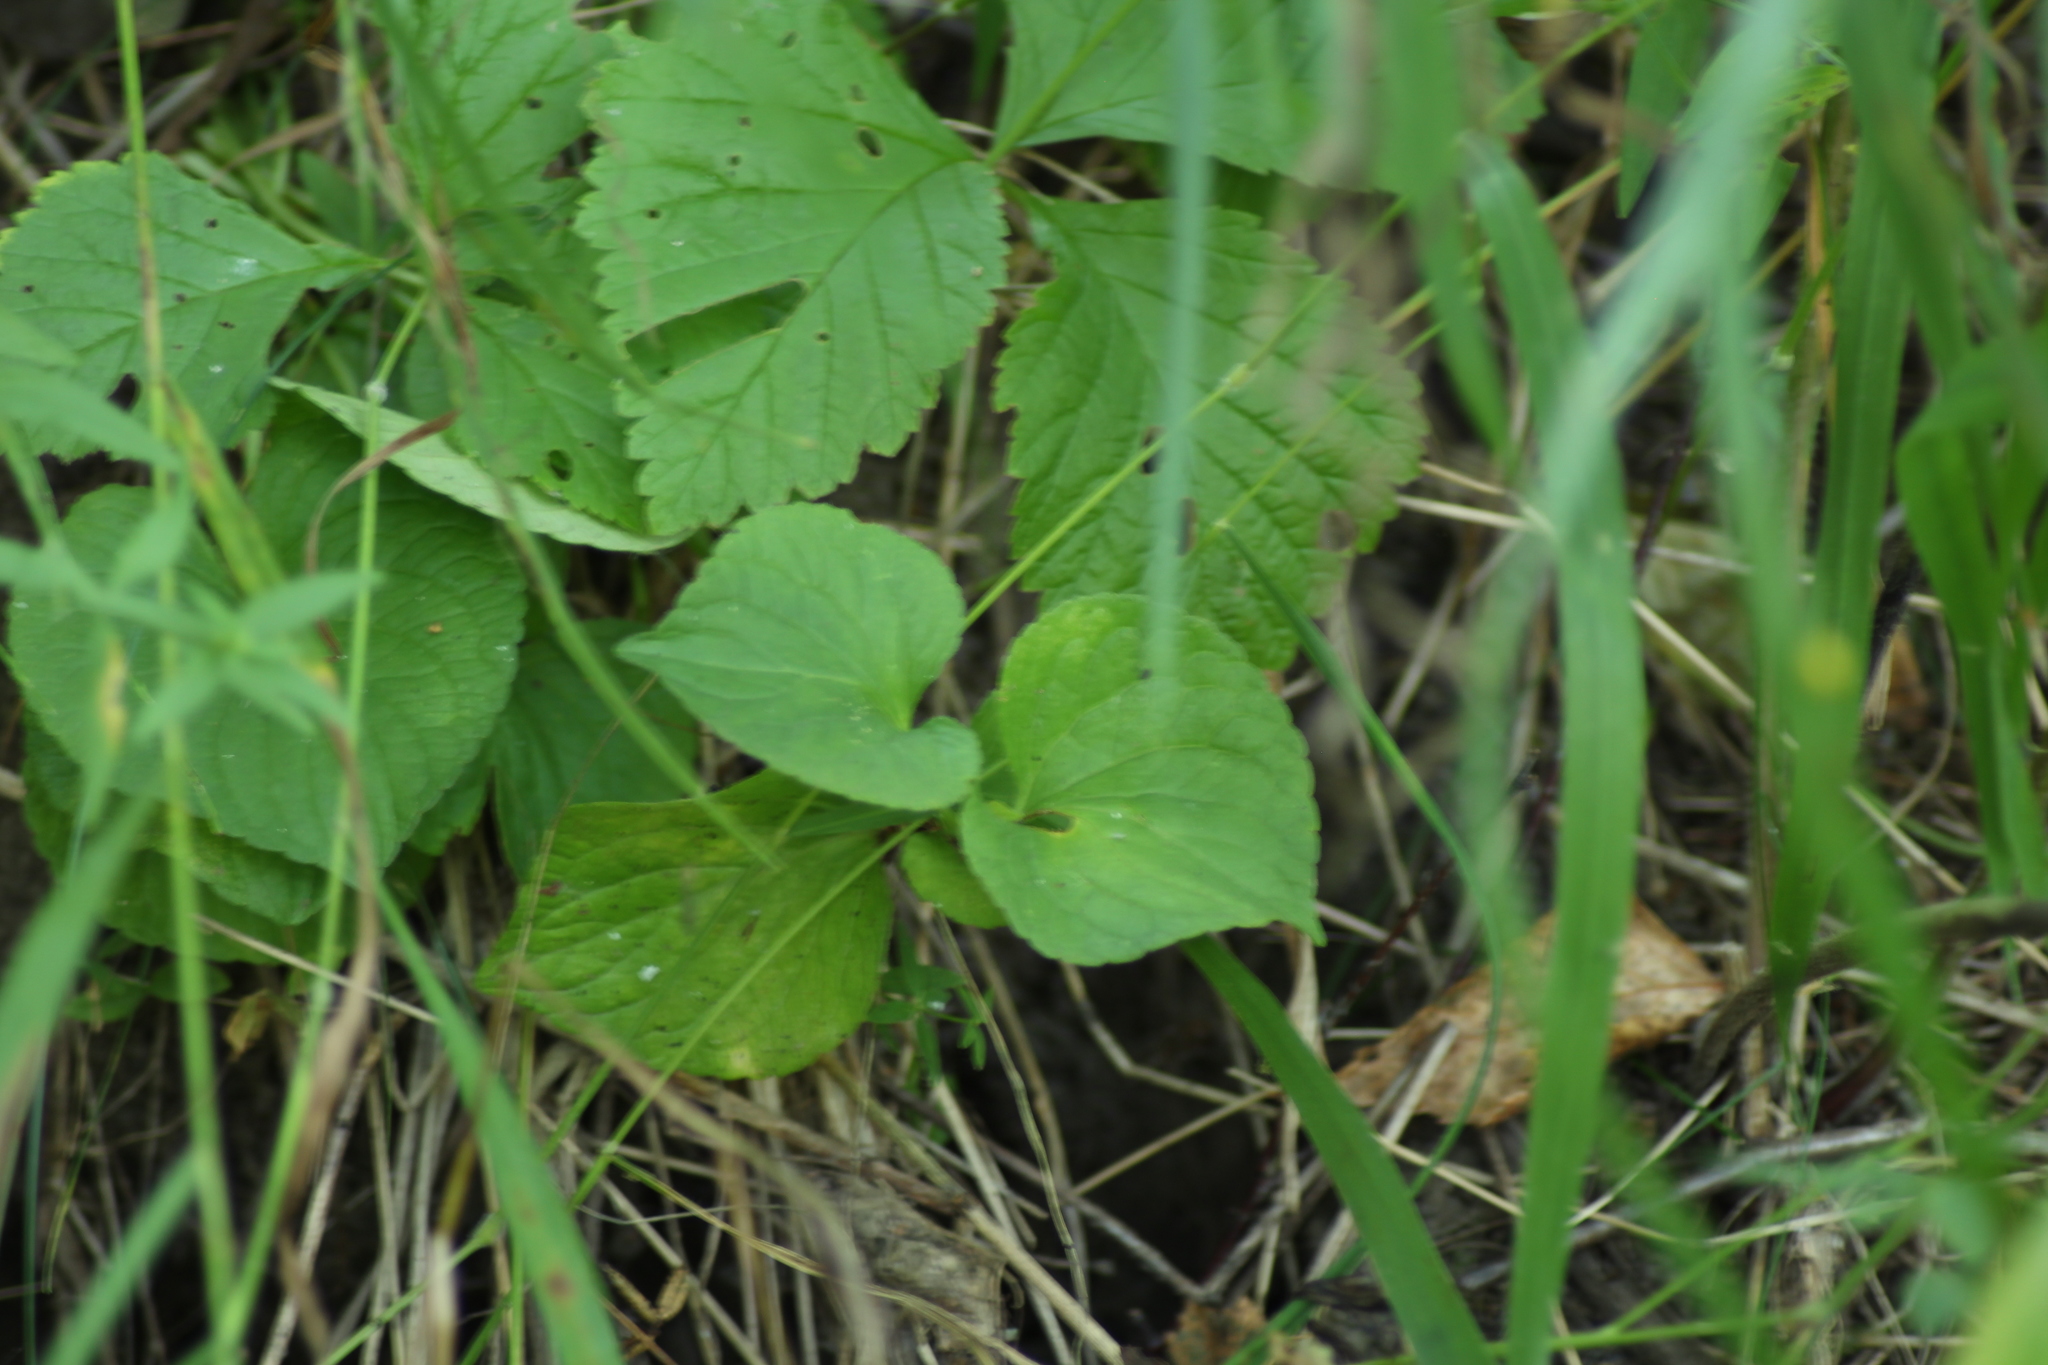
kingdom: Plantae
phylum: Tracheophyta
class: Magnoliopsida
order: Malpighiales
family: Violaceae
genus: Viola
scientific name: Viola mirabilis
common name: Wonder violet
